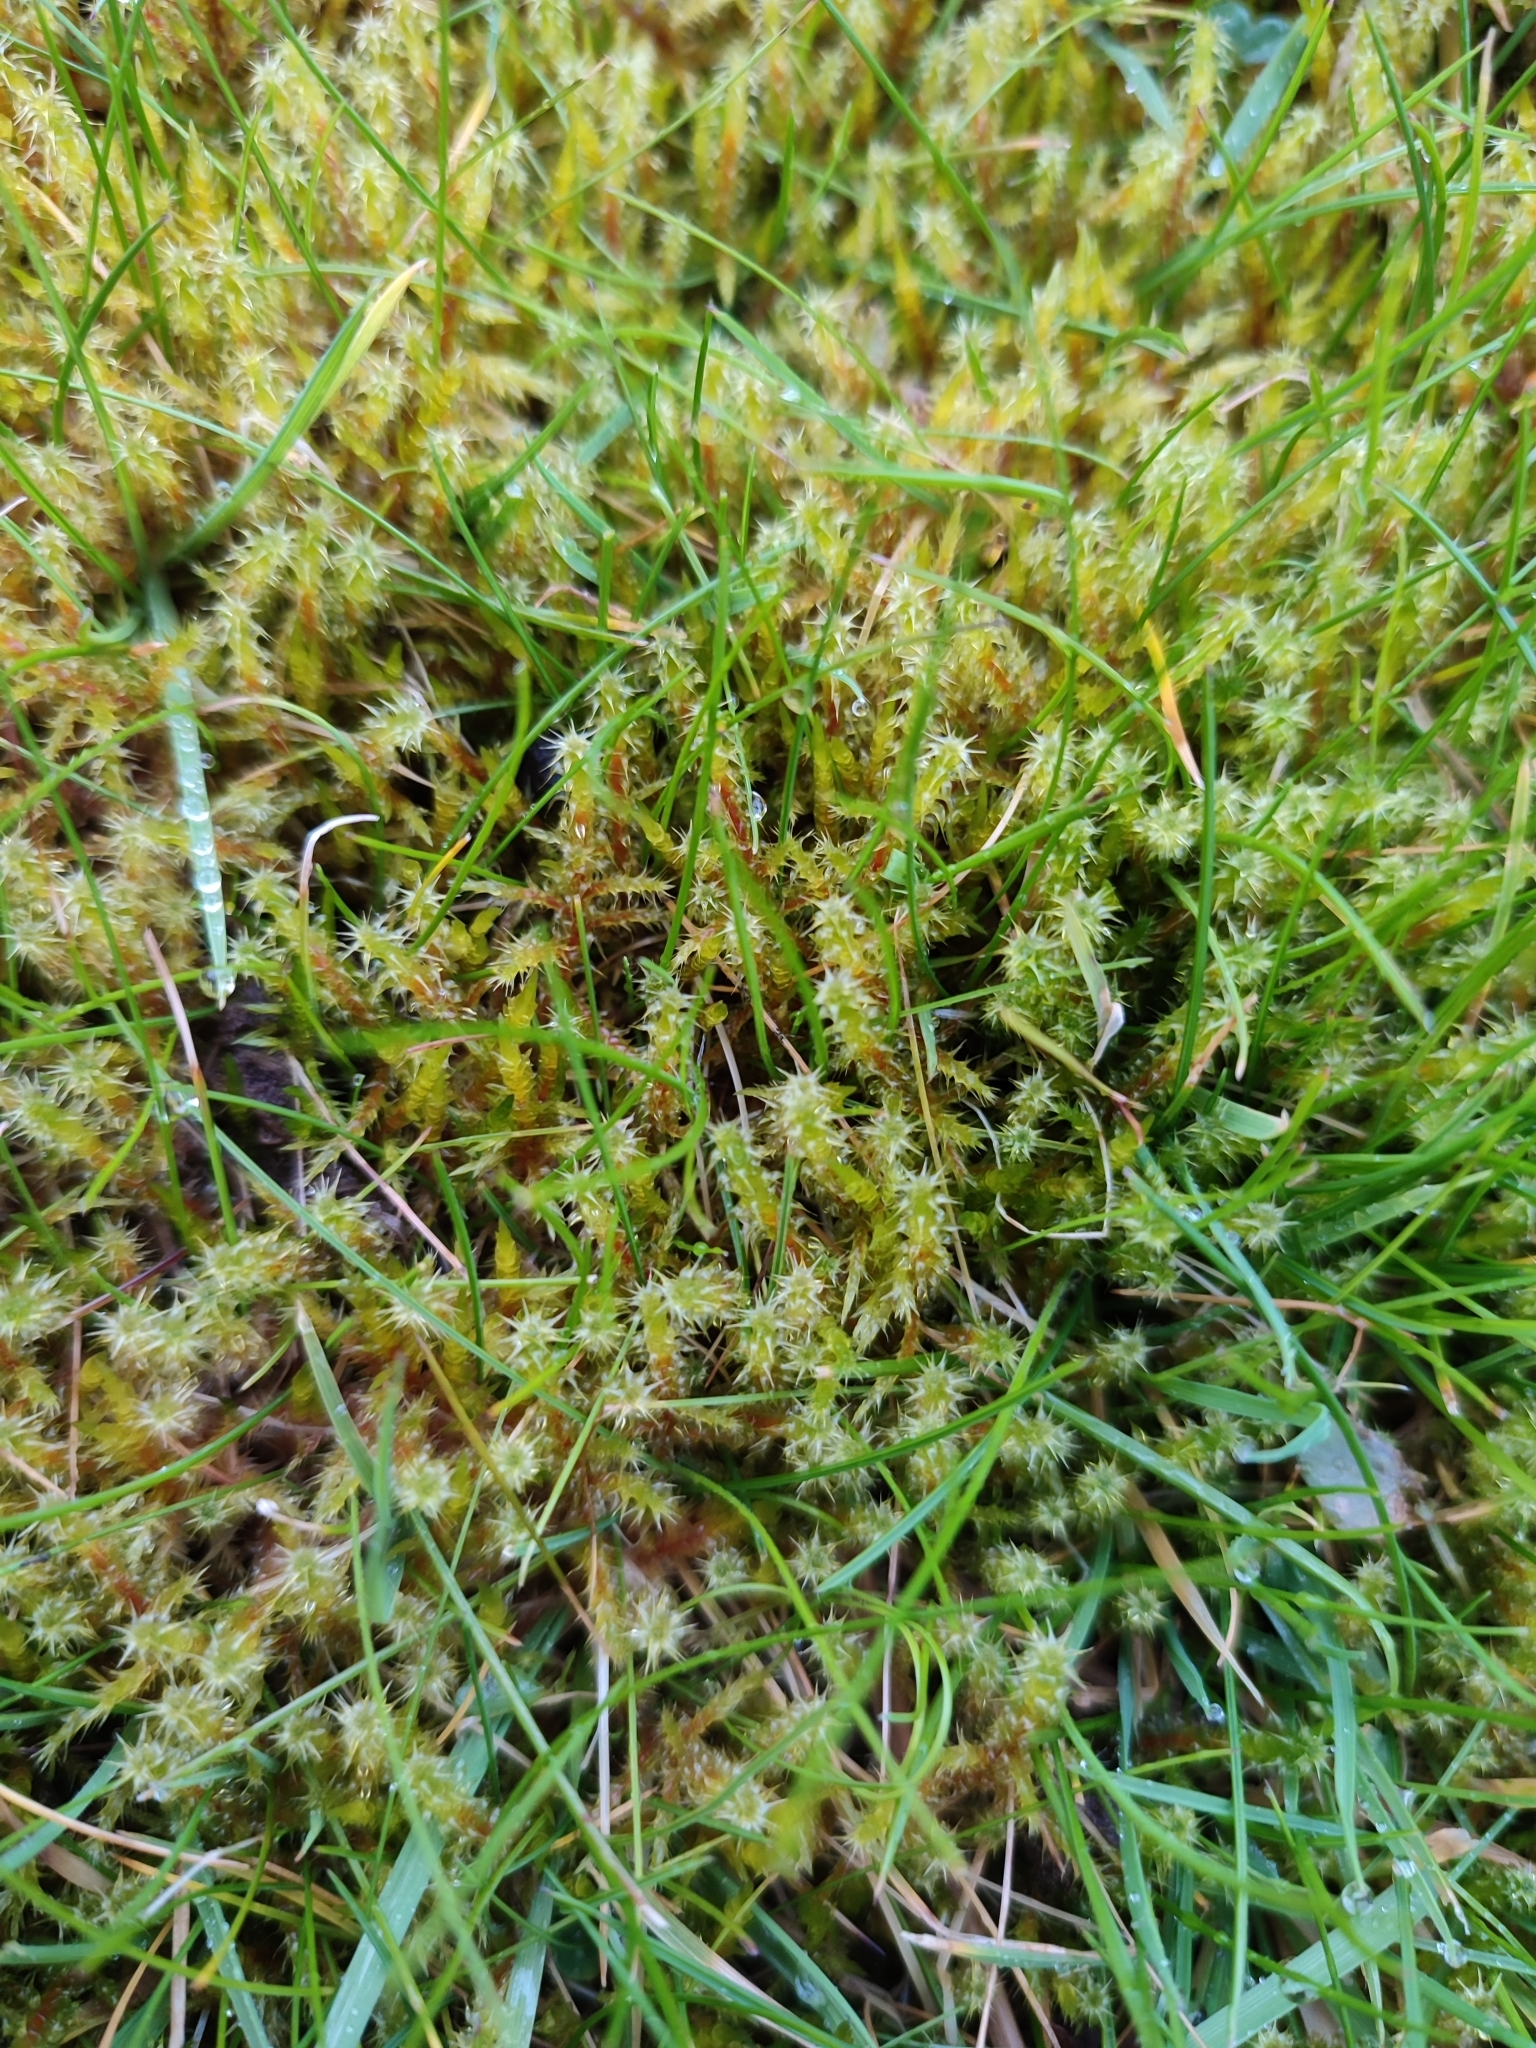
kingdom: Plantae
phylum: Bryophyta
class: Bryopsida
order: Hypnales
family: Hylocomiaceae
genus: Rhytidiadelphus
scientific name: Rhytidiadelphus squarrosus
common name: Springy turf-moss
